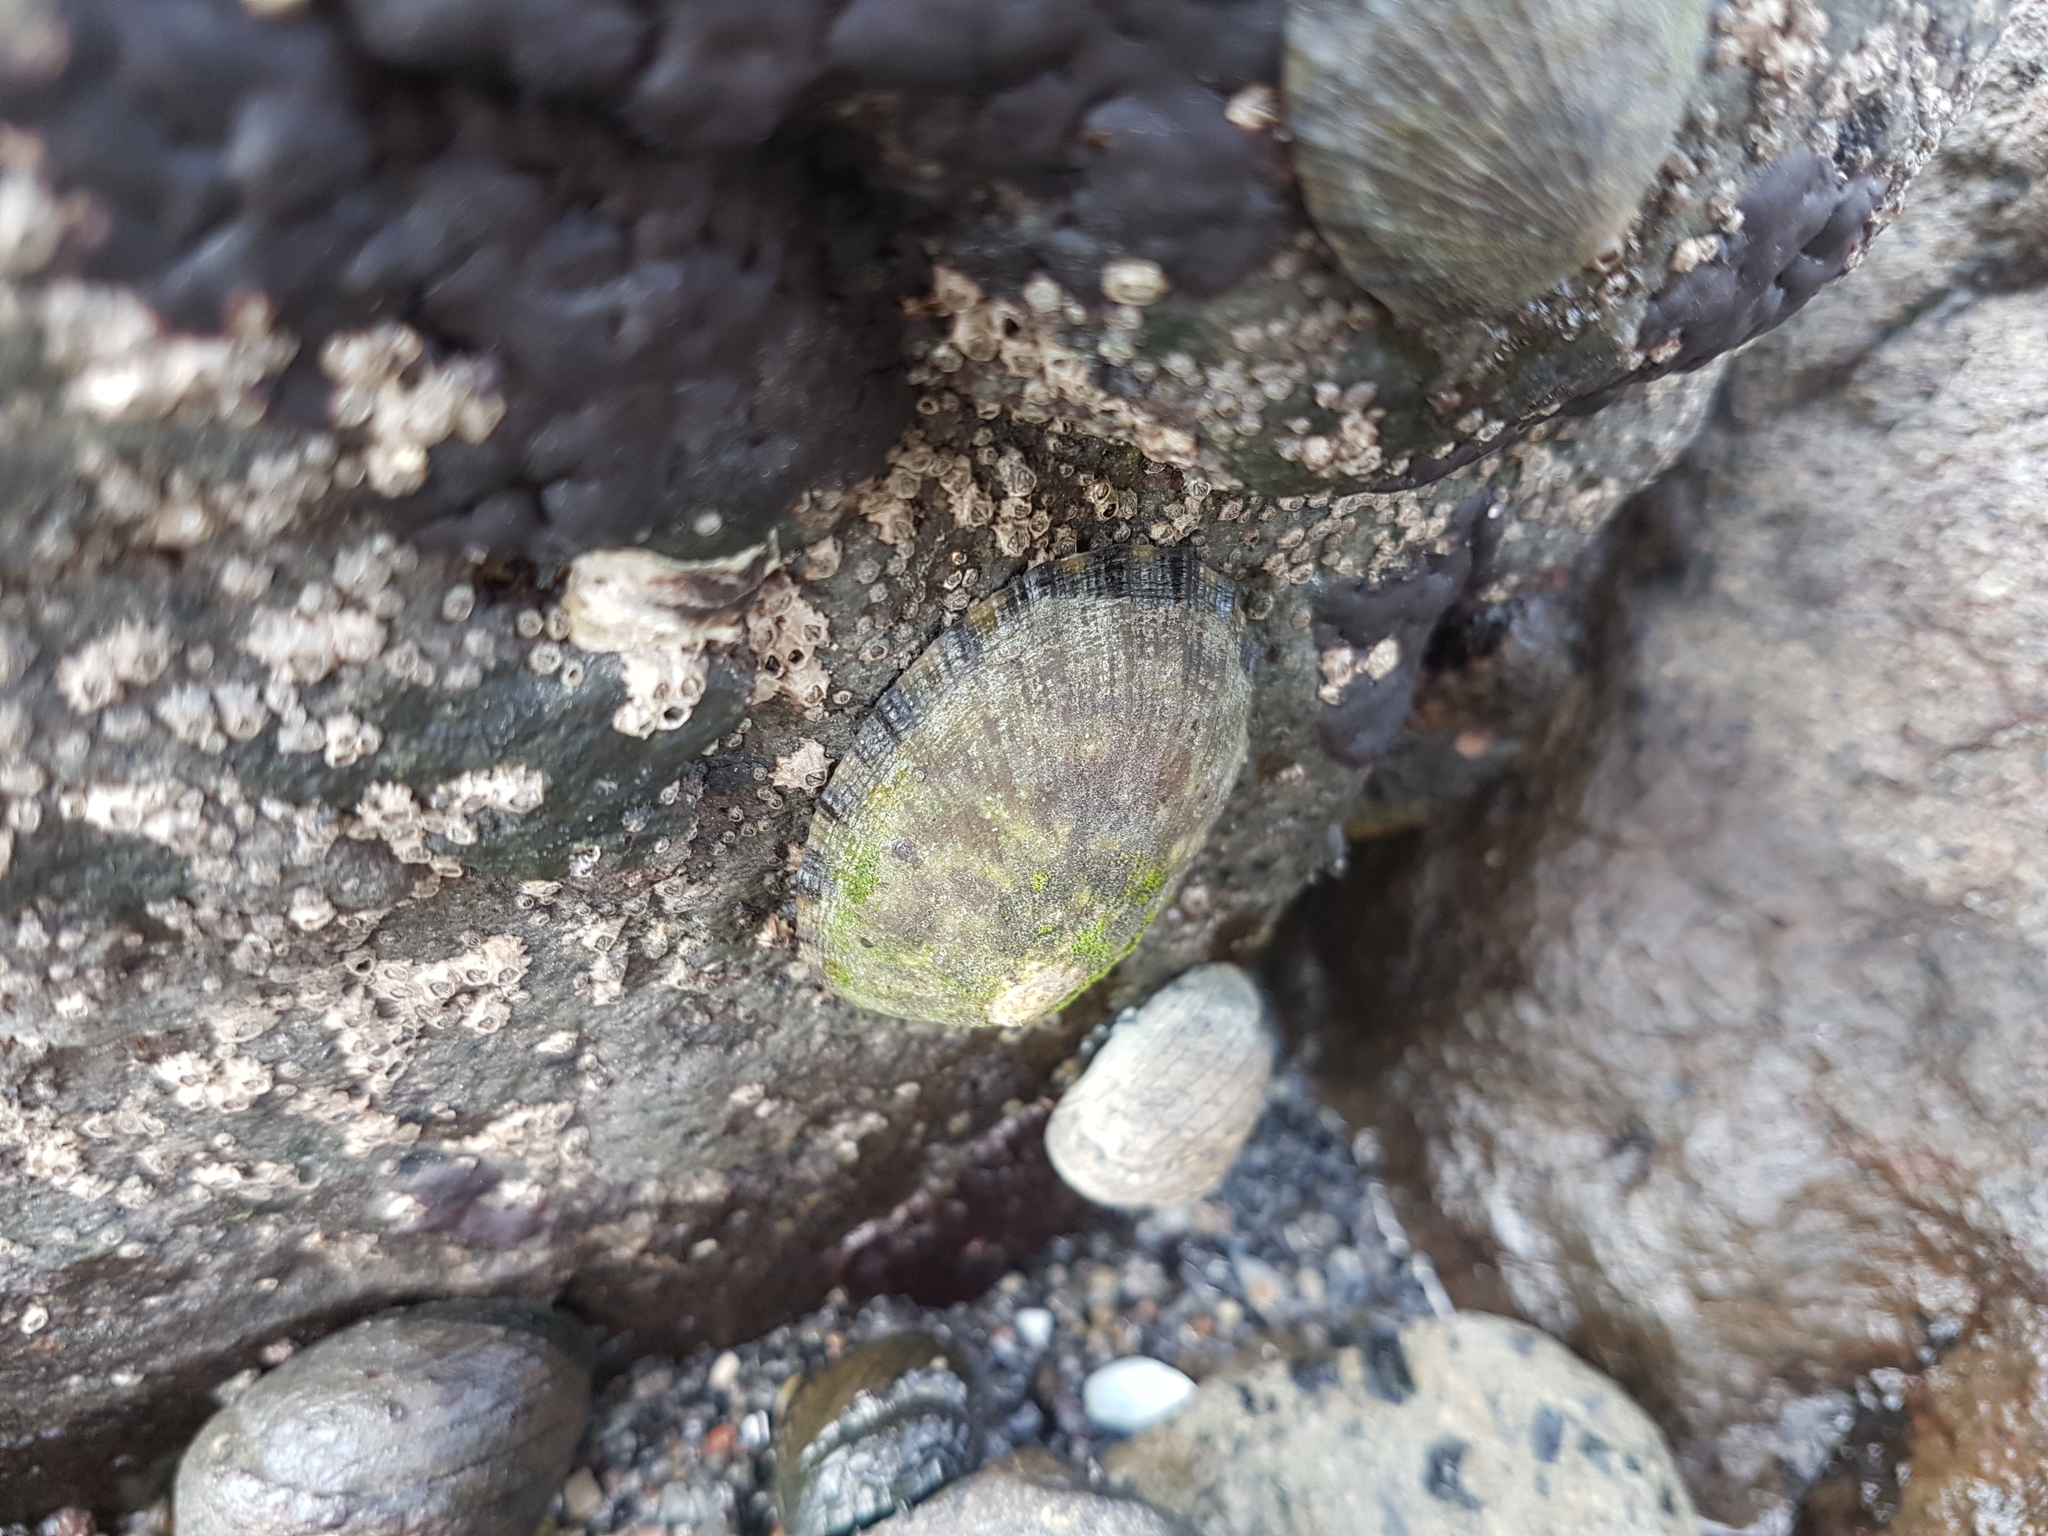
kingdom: Animalia
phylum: Mollusca
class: Gastropoda
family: Nacellidae
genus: Cellana
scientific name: Cellana radians
